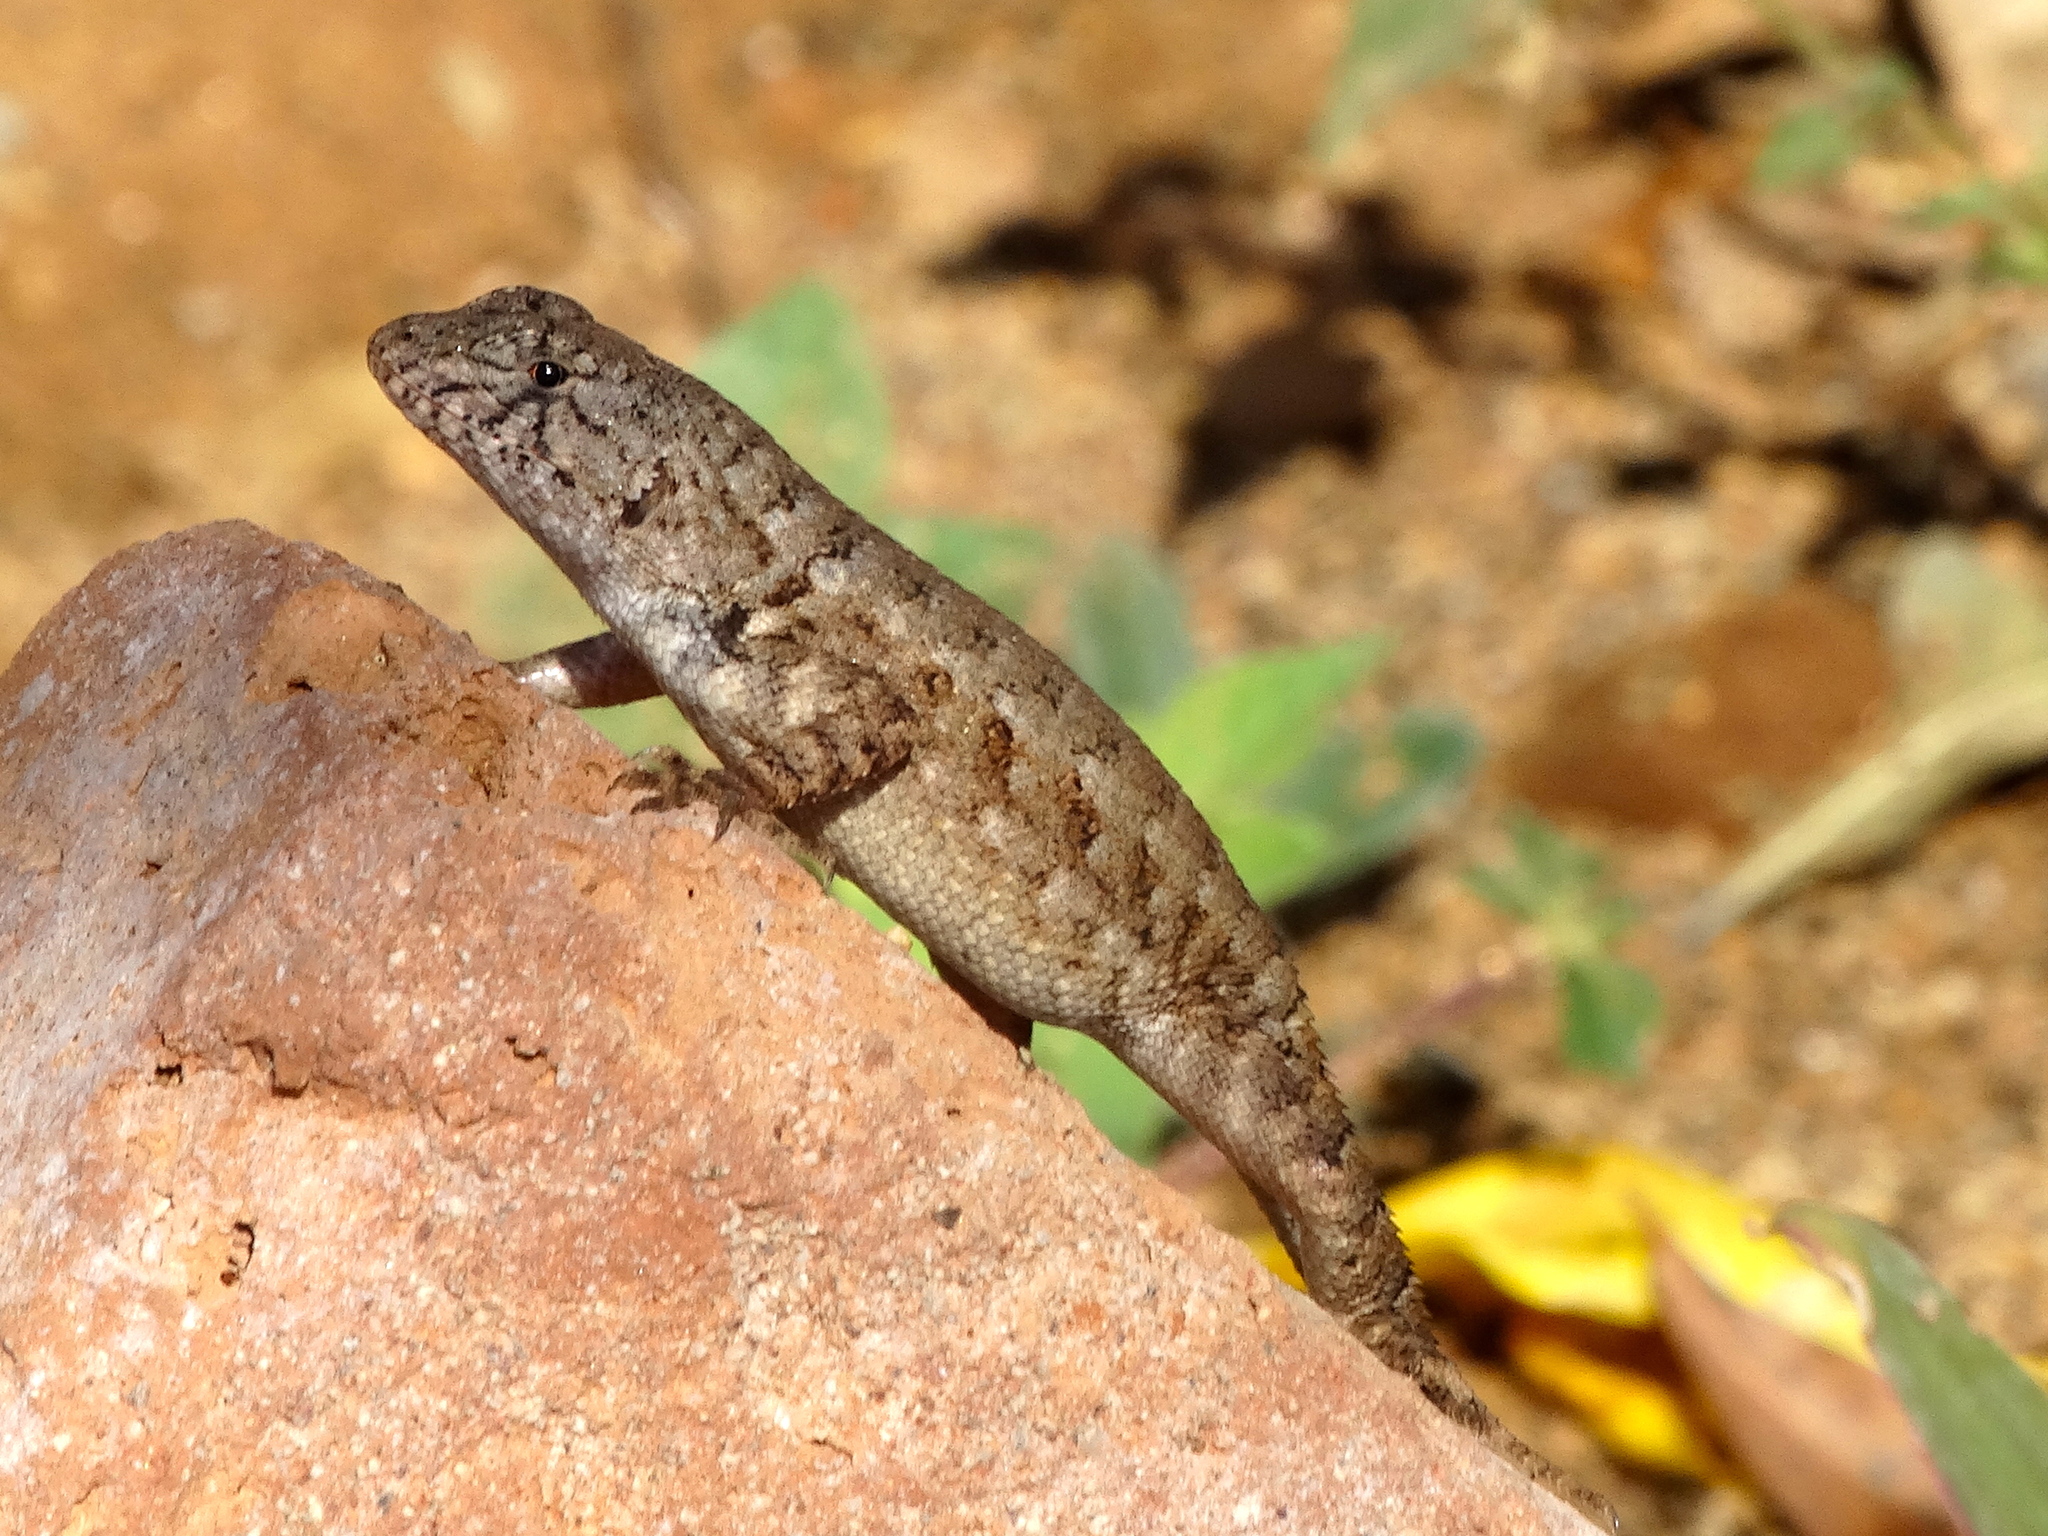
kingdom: Animalia
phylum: Chordata
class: Squamata
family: Phrynosomatidae
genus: Sceloporus
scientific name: Sceloporus nelsoni
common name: Nelson's spiny lizard
